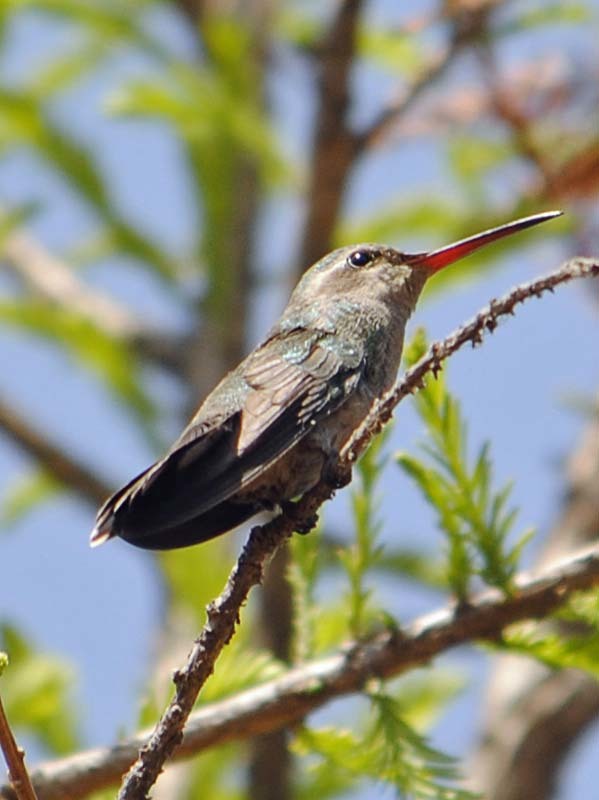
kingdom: Animalia
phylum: Chordata
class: Aves
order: Apodiformes
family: Trochilidae
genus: Cynanthus
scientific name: Cynanthus latirostris
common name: Broad-billed hummingbird
